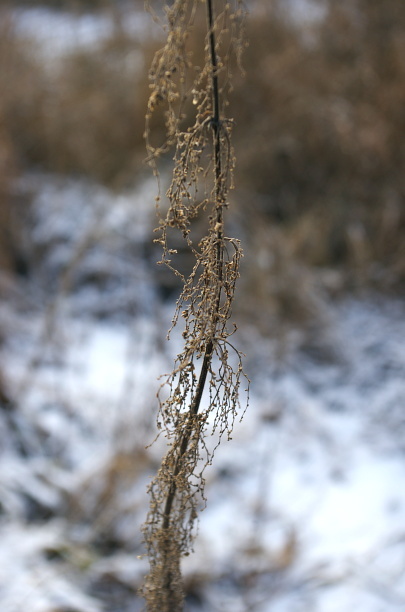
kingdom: Plantae
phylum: Tracheophyta
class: Magnoliopsida
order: Rosales
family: Urticaceae
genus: Urtica
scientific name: Urtica dioica
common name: Common nettle
